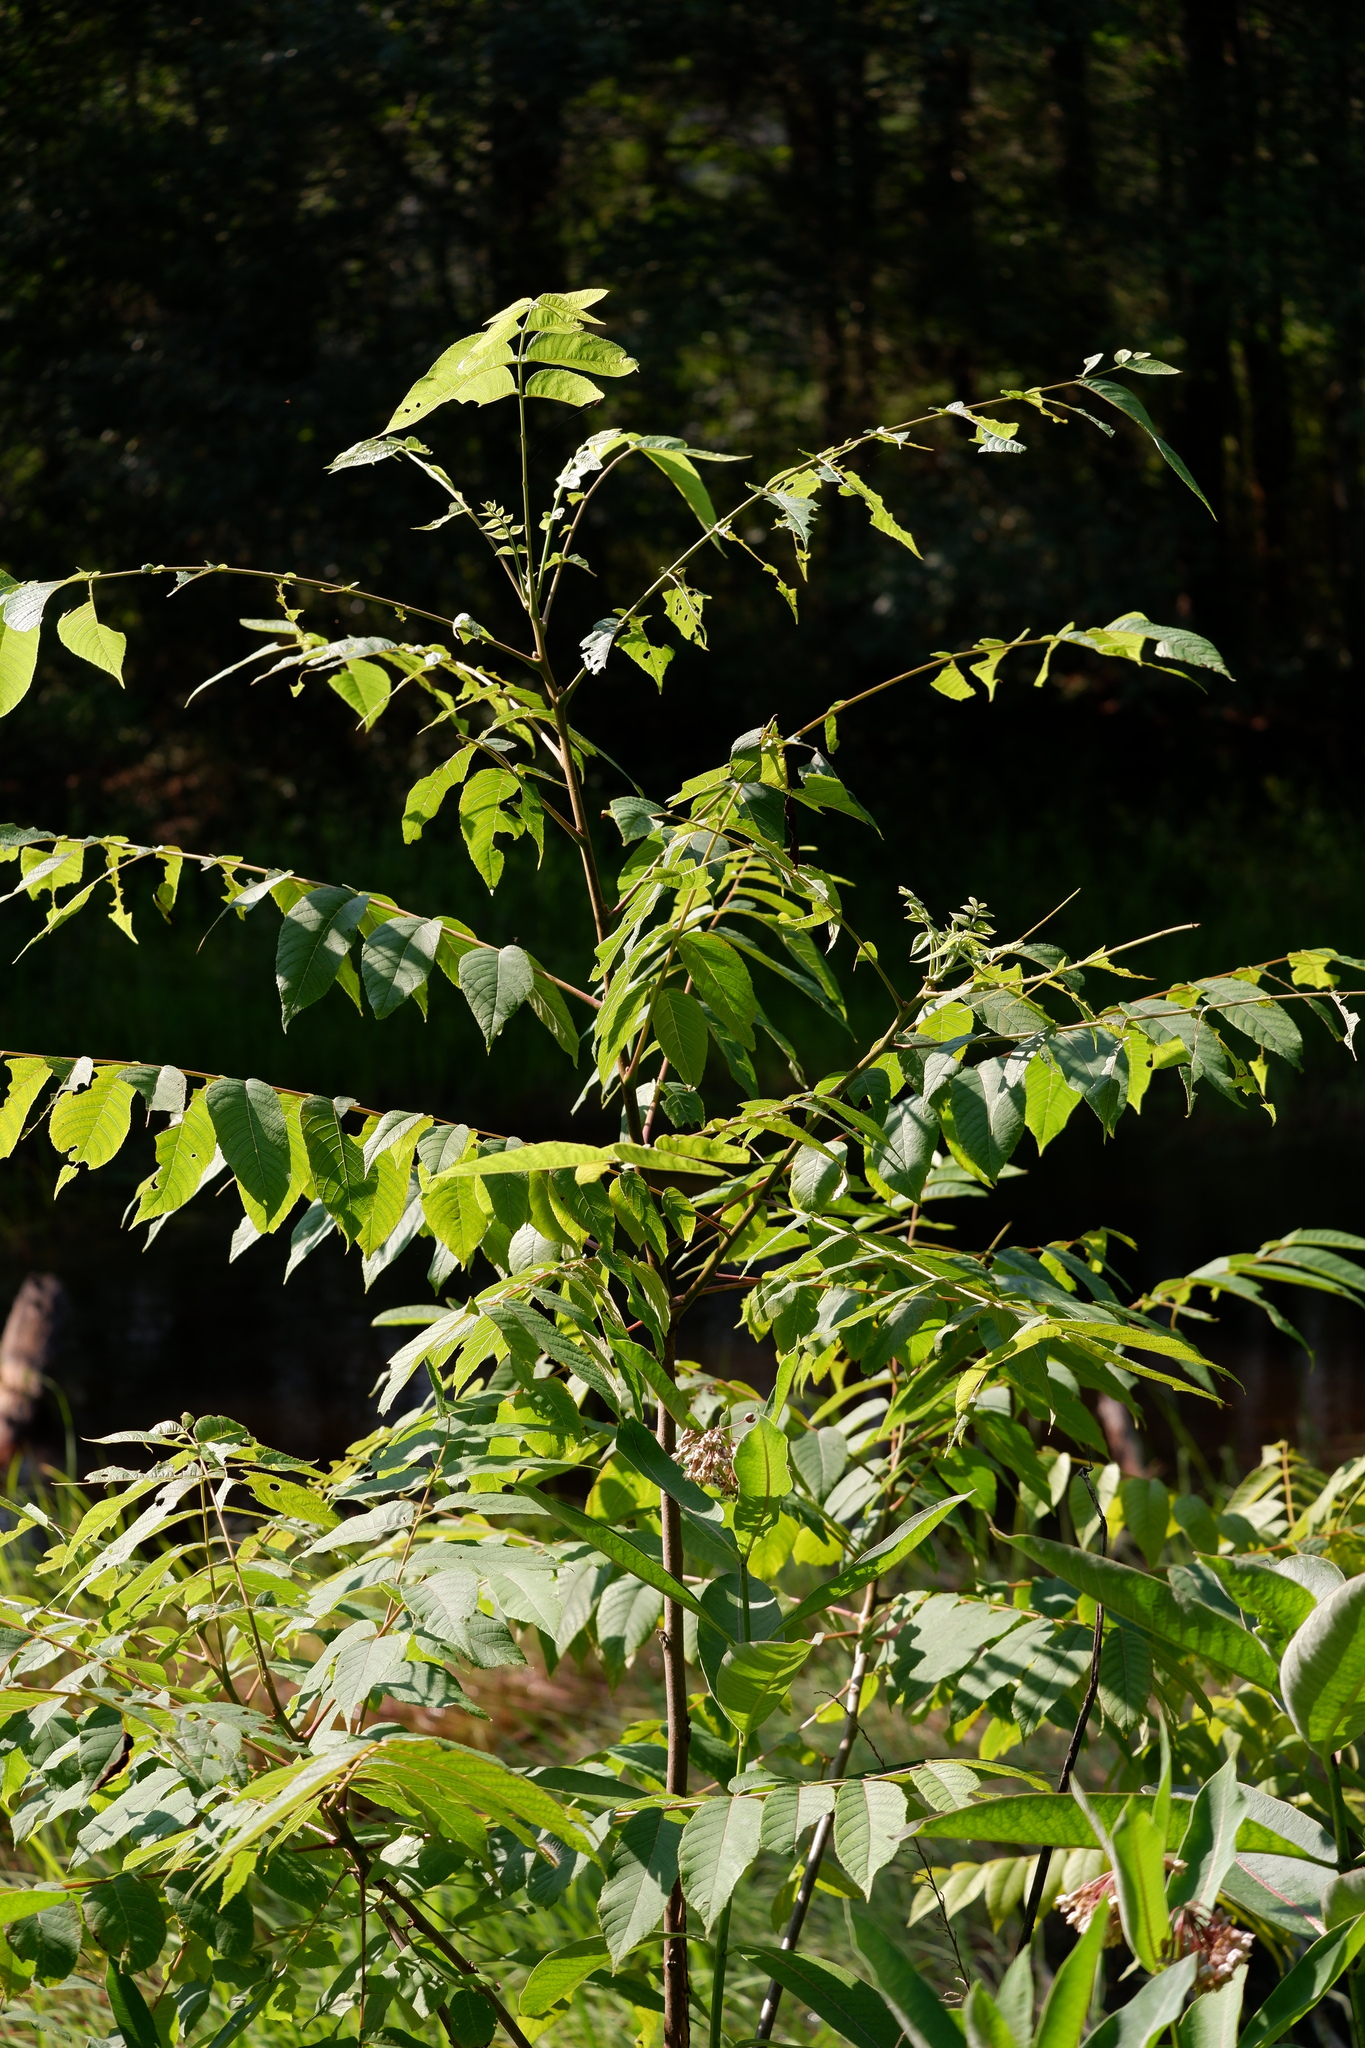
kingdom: Plantae
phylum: Tracheophyta
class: Magnoliopsida
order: Fagales
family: Juglandaceae
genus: Juglans
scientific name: Juglans nigra
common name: Black walnut
